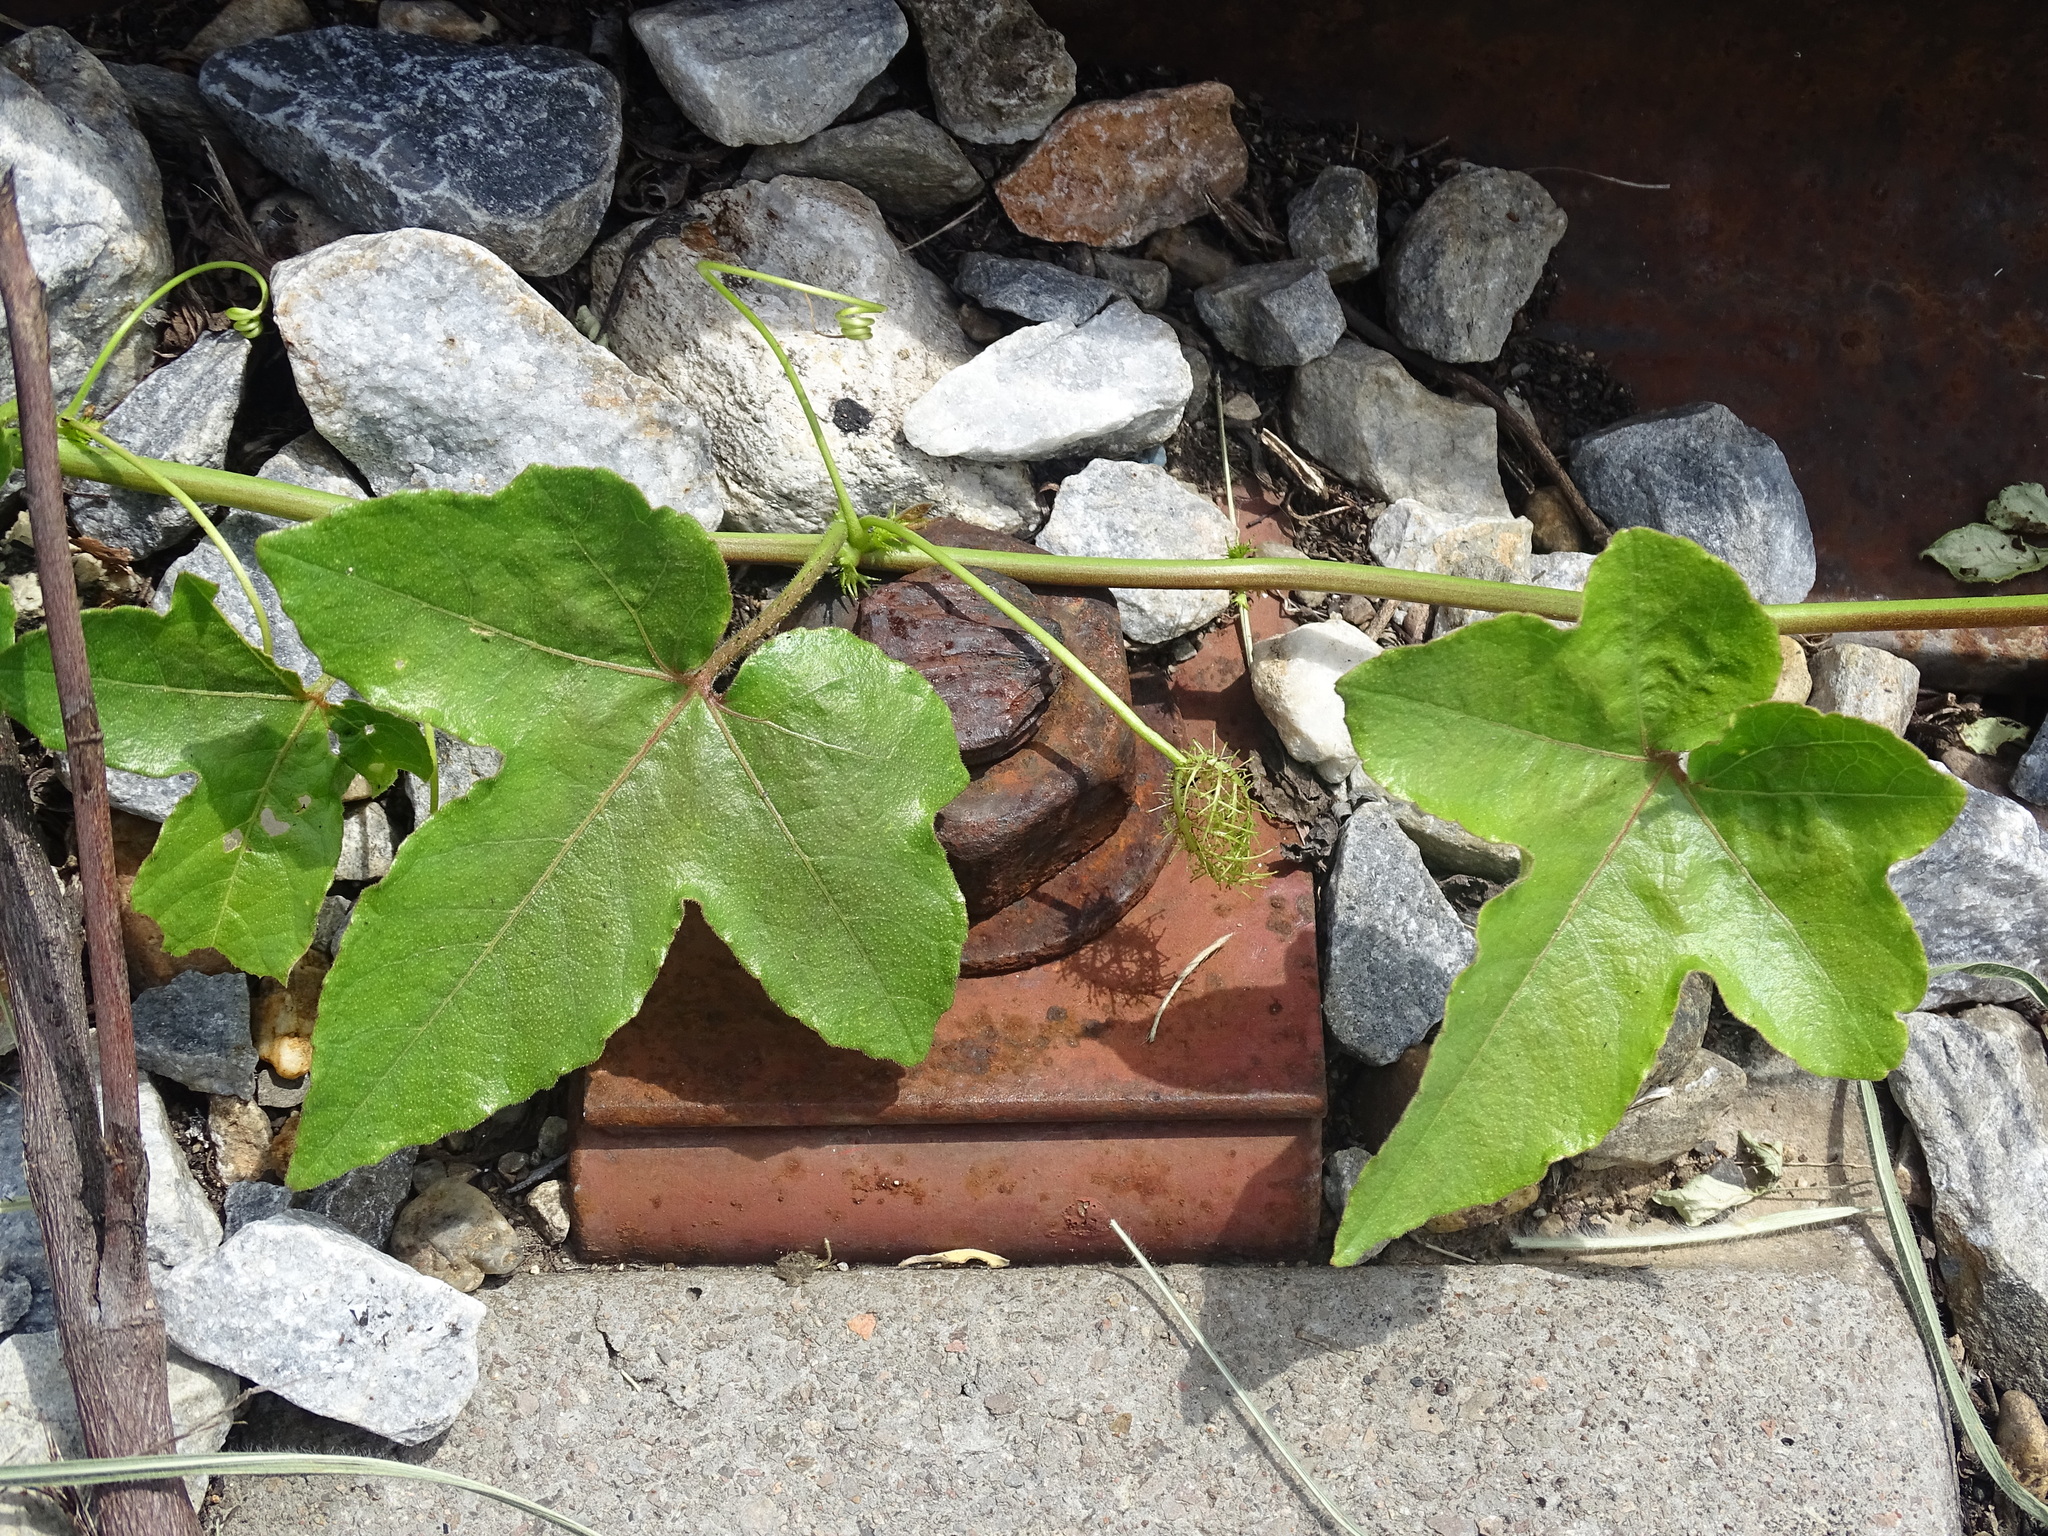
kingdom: Plantae
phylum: Tracheophyta
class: Magnoliopsida
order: Malpighiales
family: Passifloraceae
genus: Passiflora
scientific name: Passiflora ciliata
